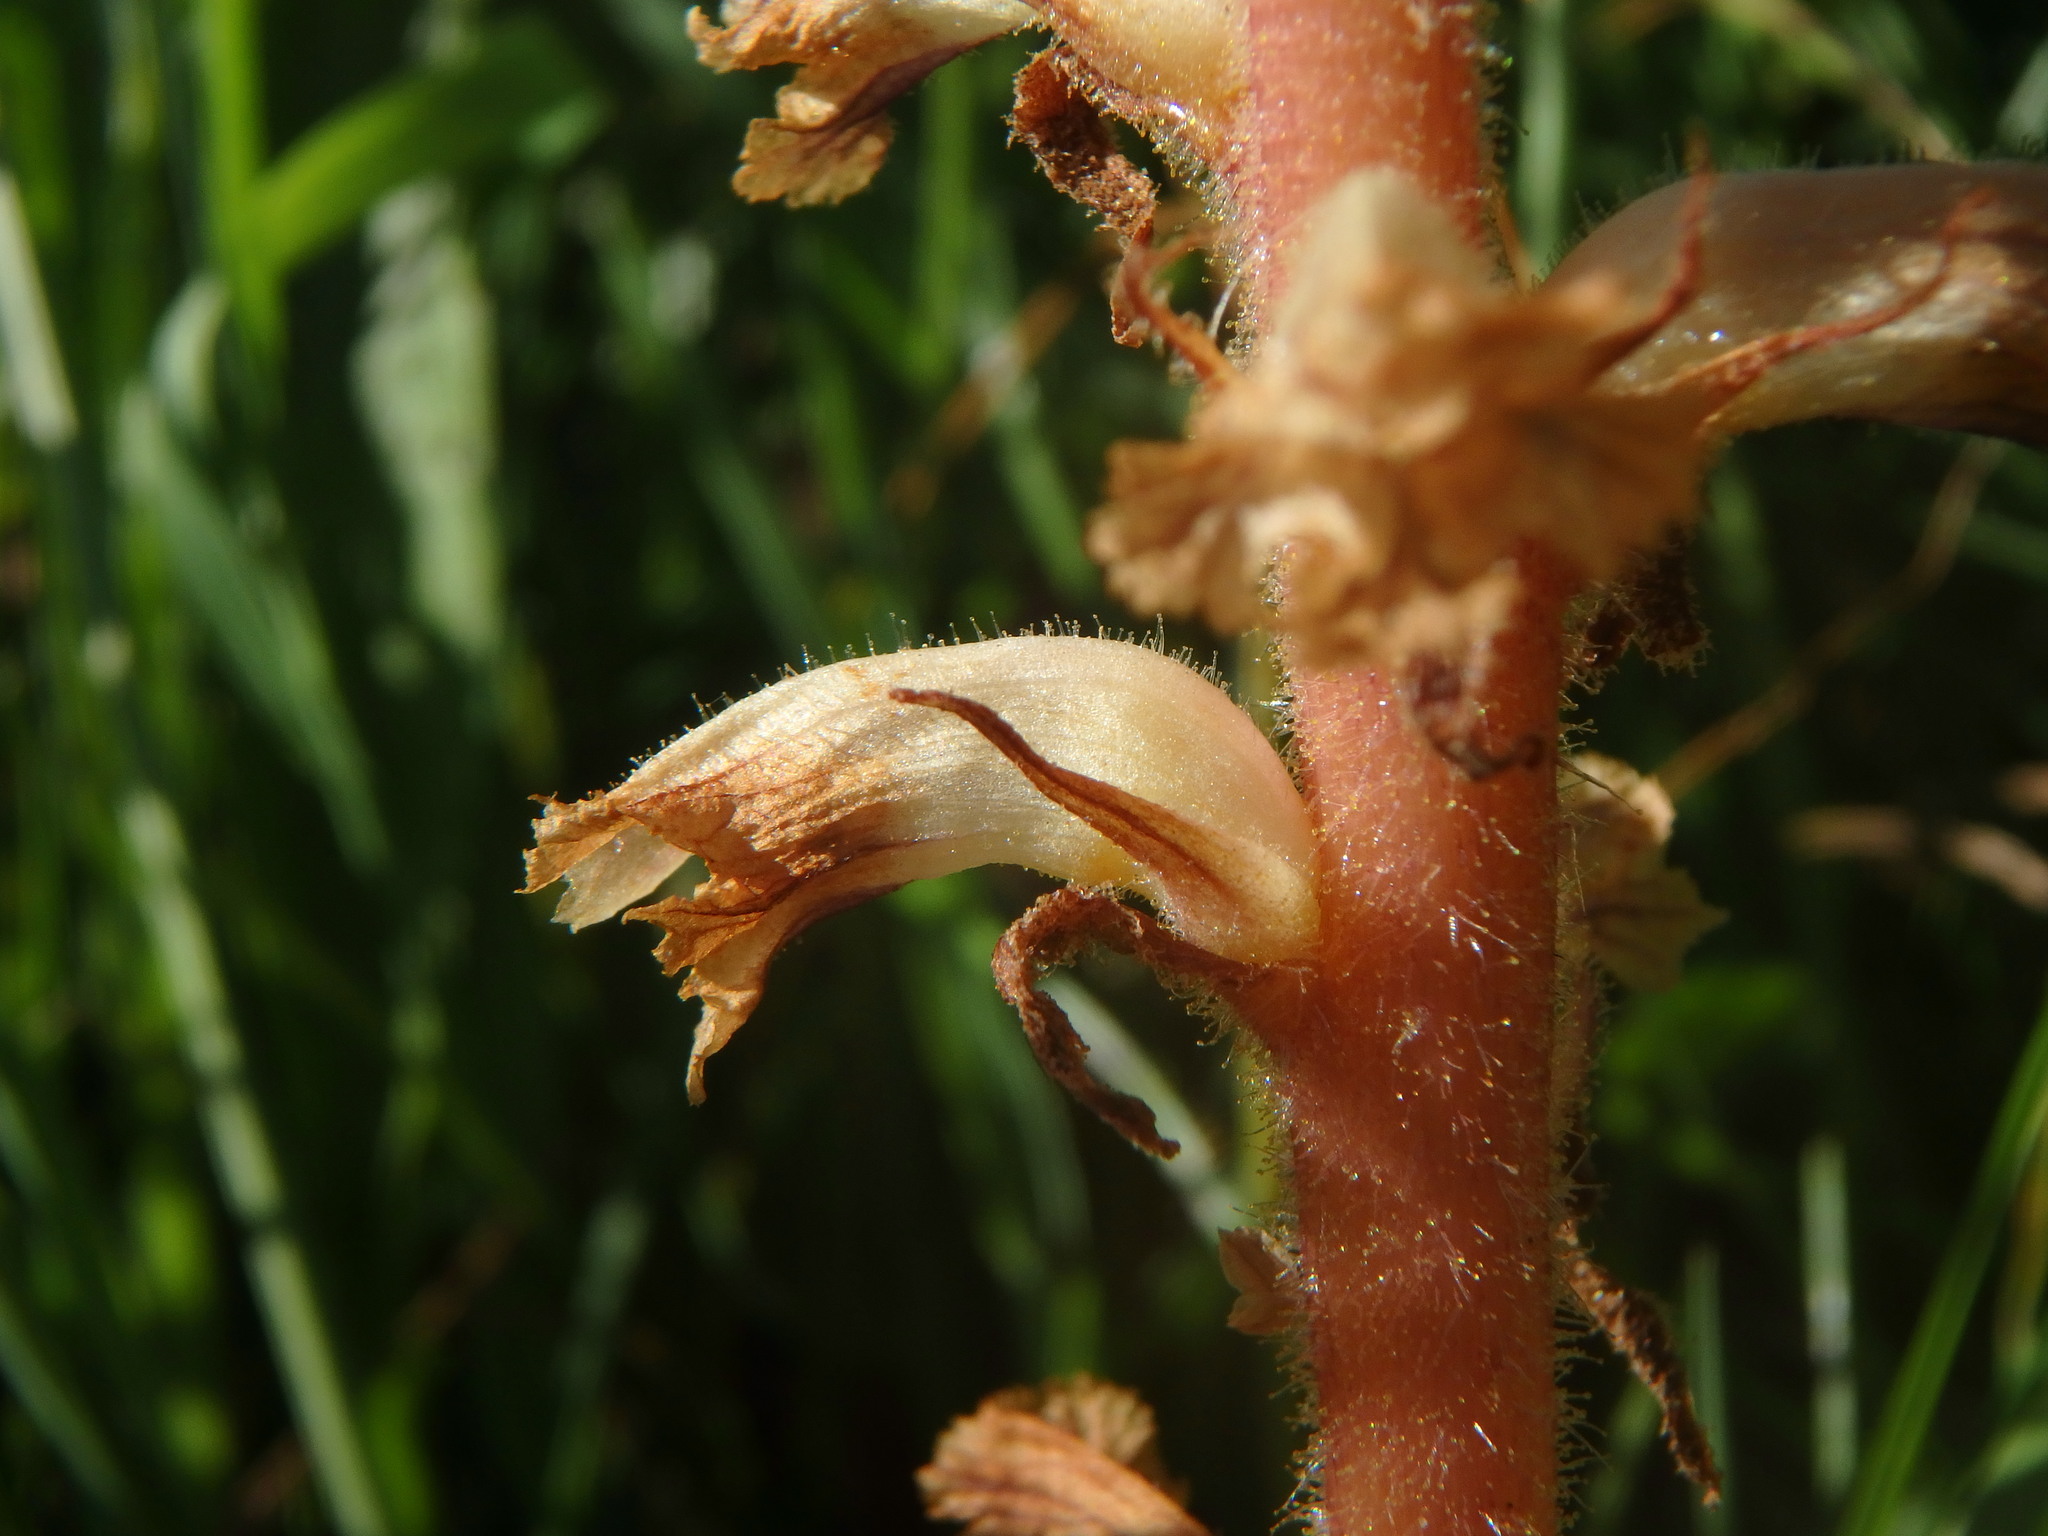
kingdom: Plantae
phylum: Tracheophyta
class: Magnoliopsida
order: Lamiales
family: Orobanchaceae
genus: Orobanche
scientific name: Orobanche minor
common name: Common broomrape
